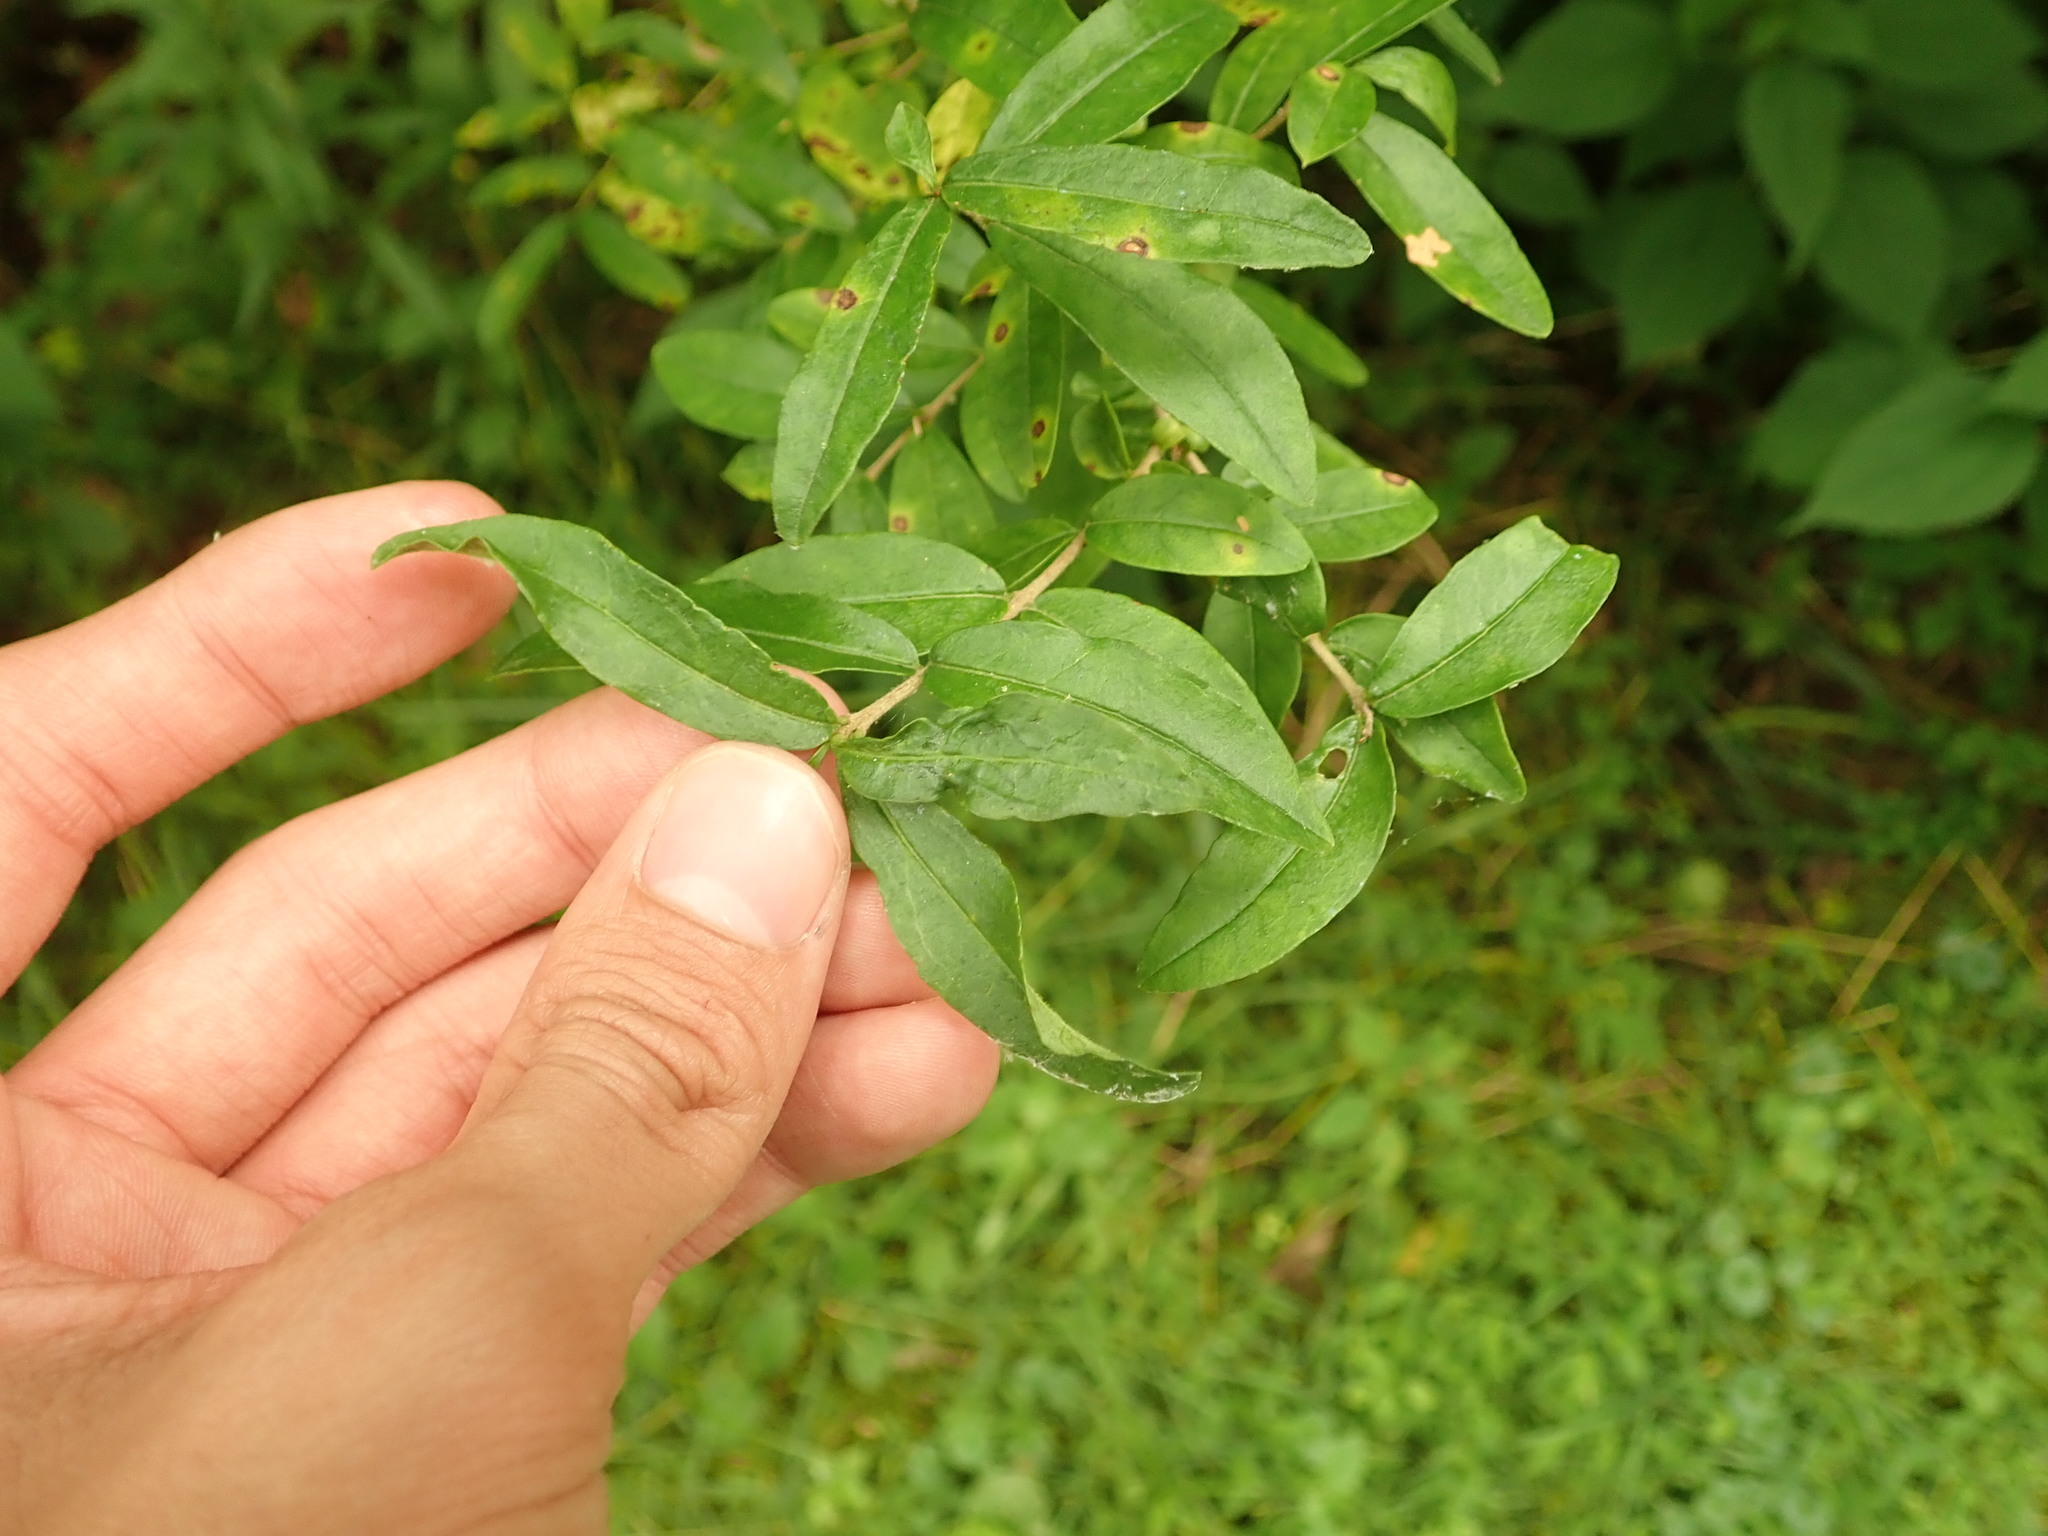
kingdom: Plantae
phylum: Tracheophyta
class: Magnoliopsida
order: Lamiales
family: Oleaceae
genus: Ligustrum
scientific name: Ligustrum vulgare
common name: Wild privet
